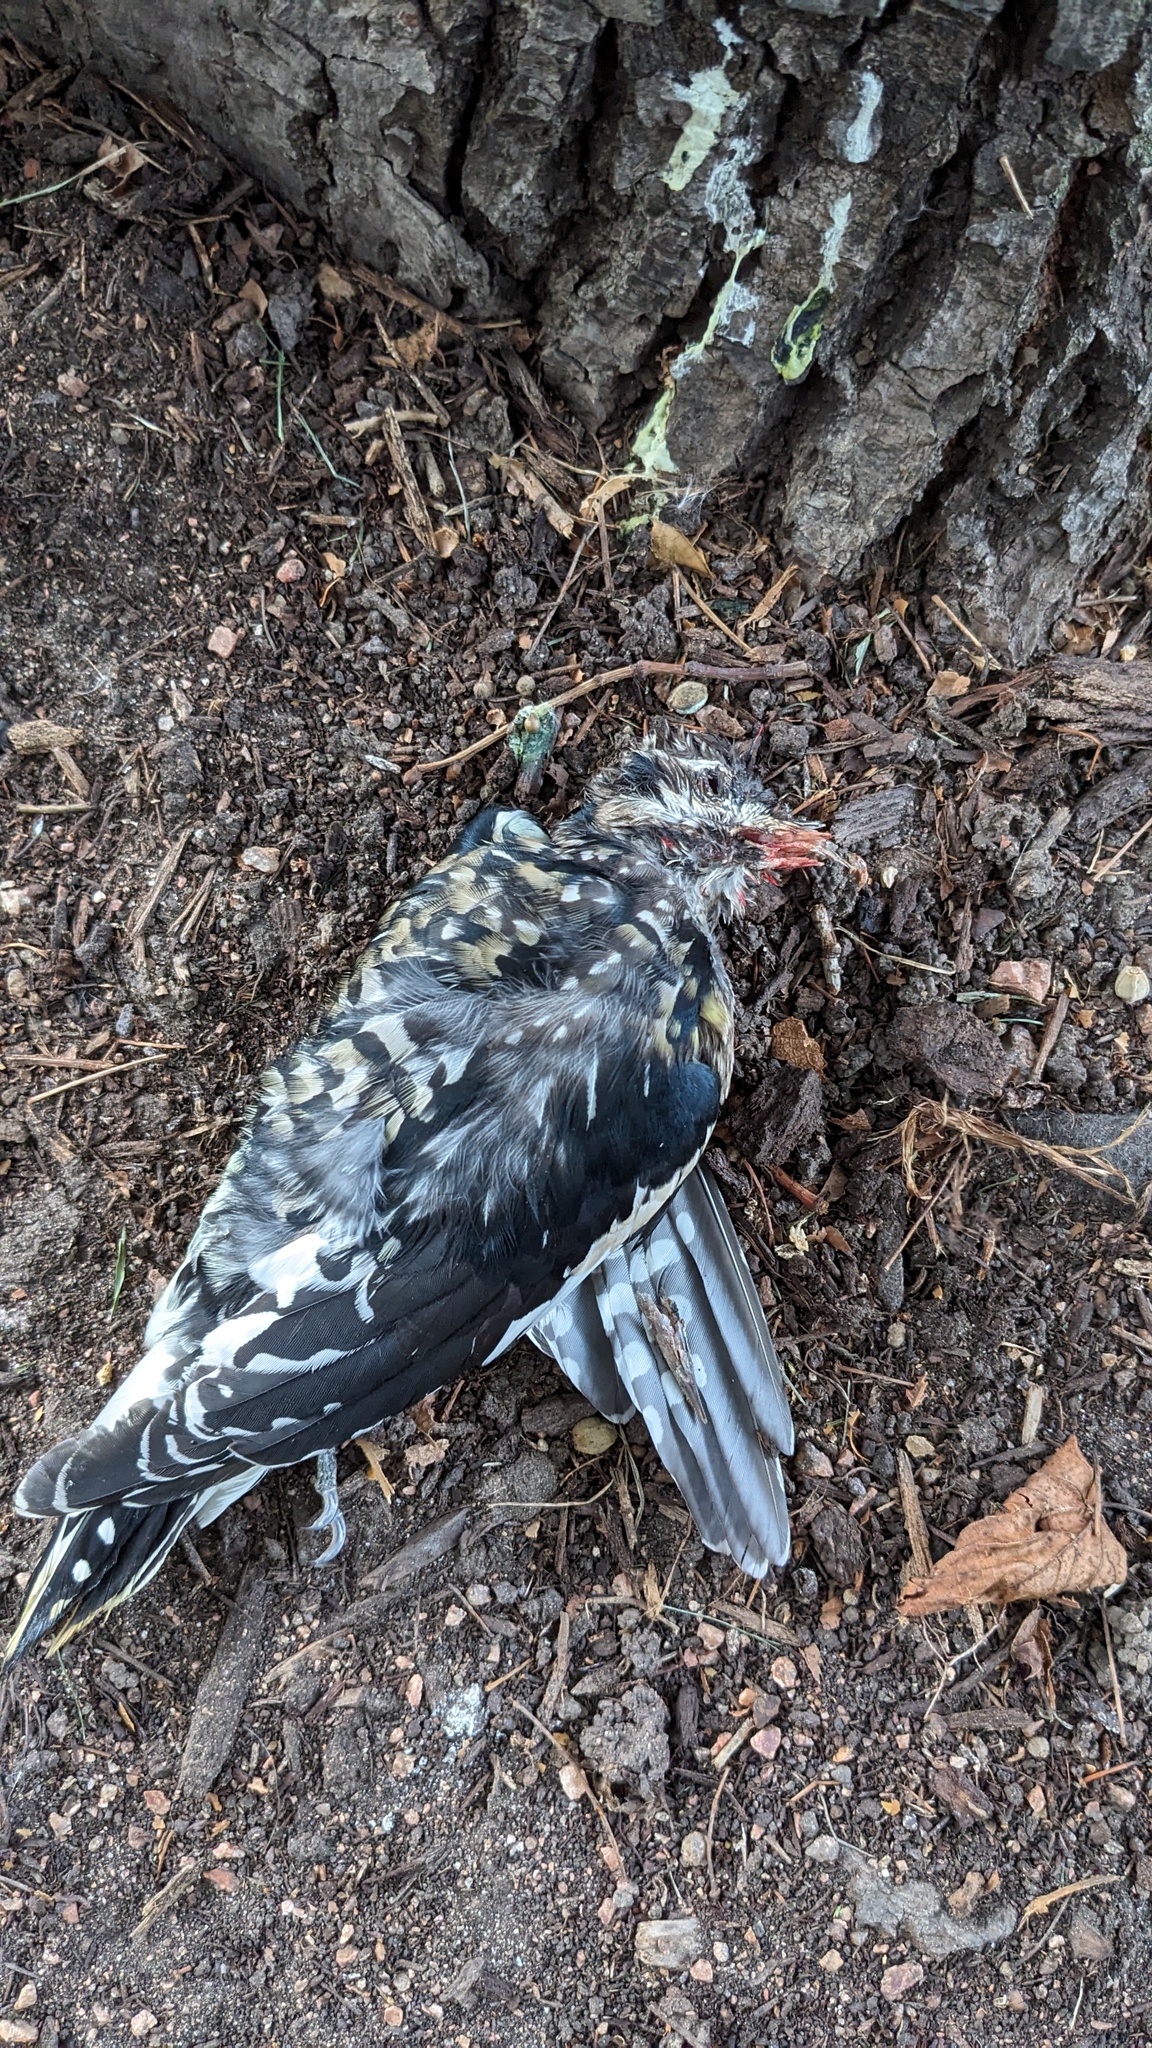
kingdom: Animalia
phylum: Chordata
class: Aves
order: Piciformes
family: Picidae
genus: Sphyrapicus
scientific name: Sphyrapicus varius
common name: Yellow-bellied sapsucker
